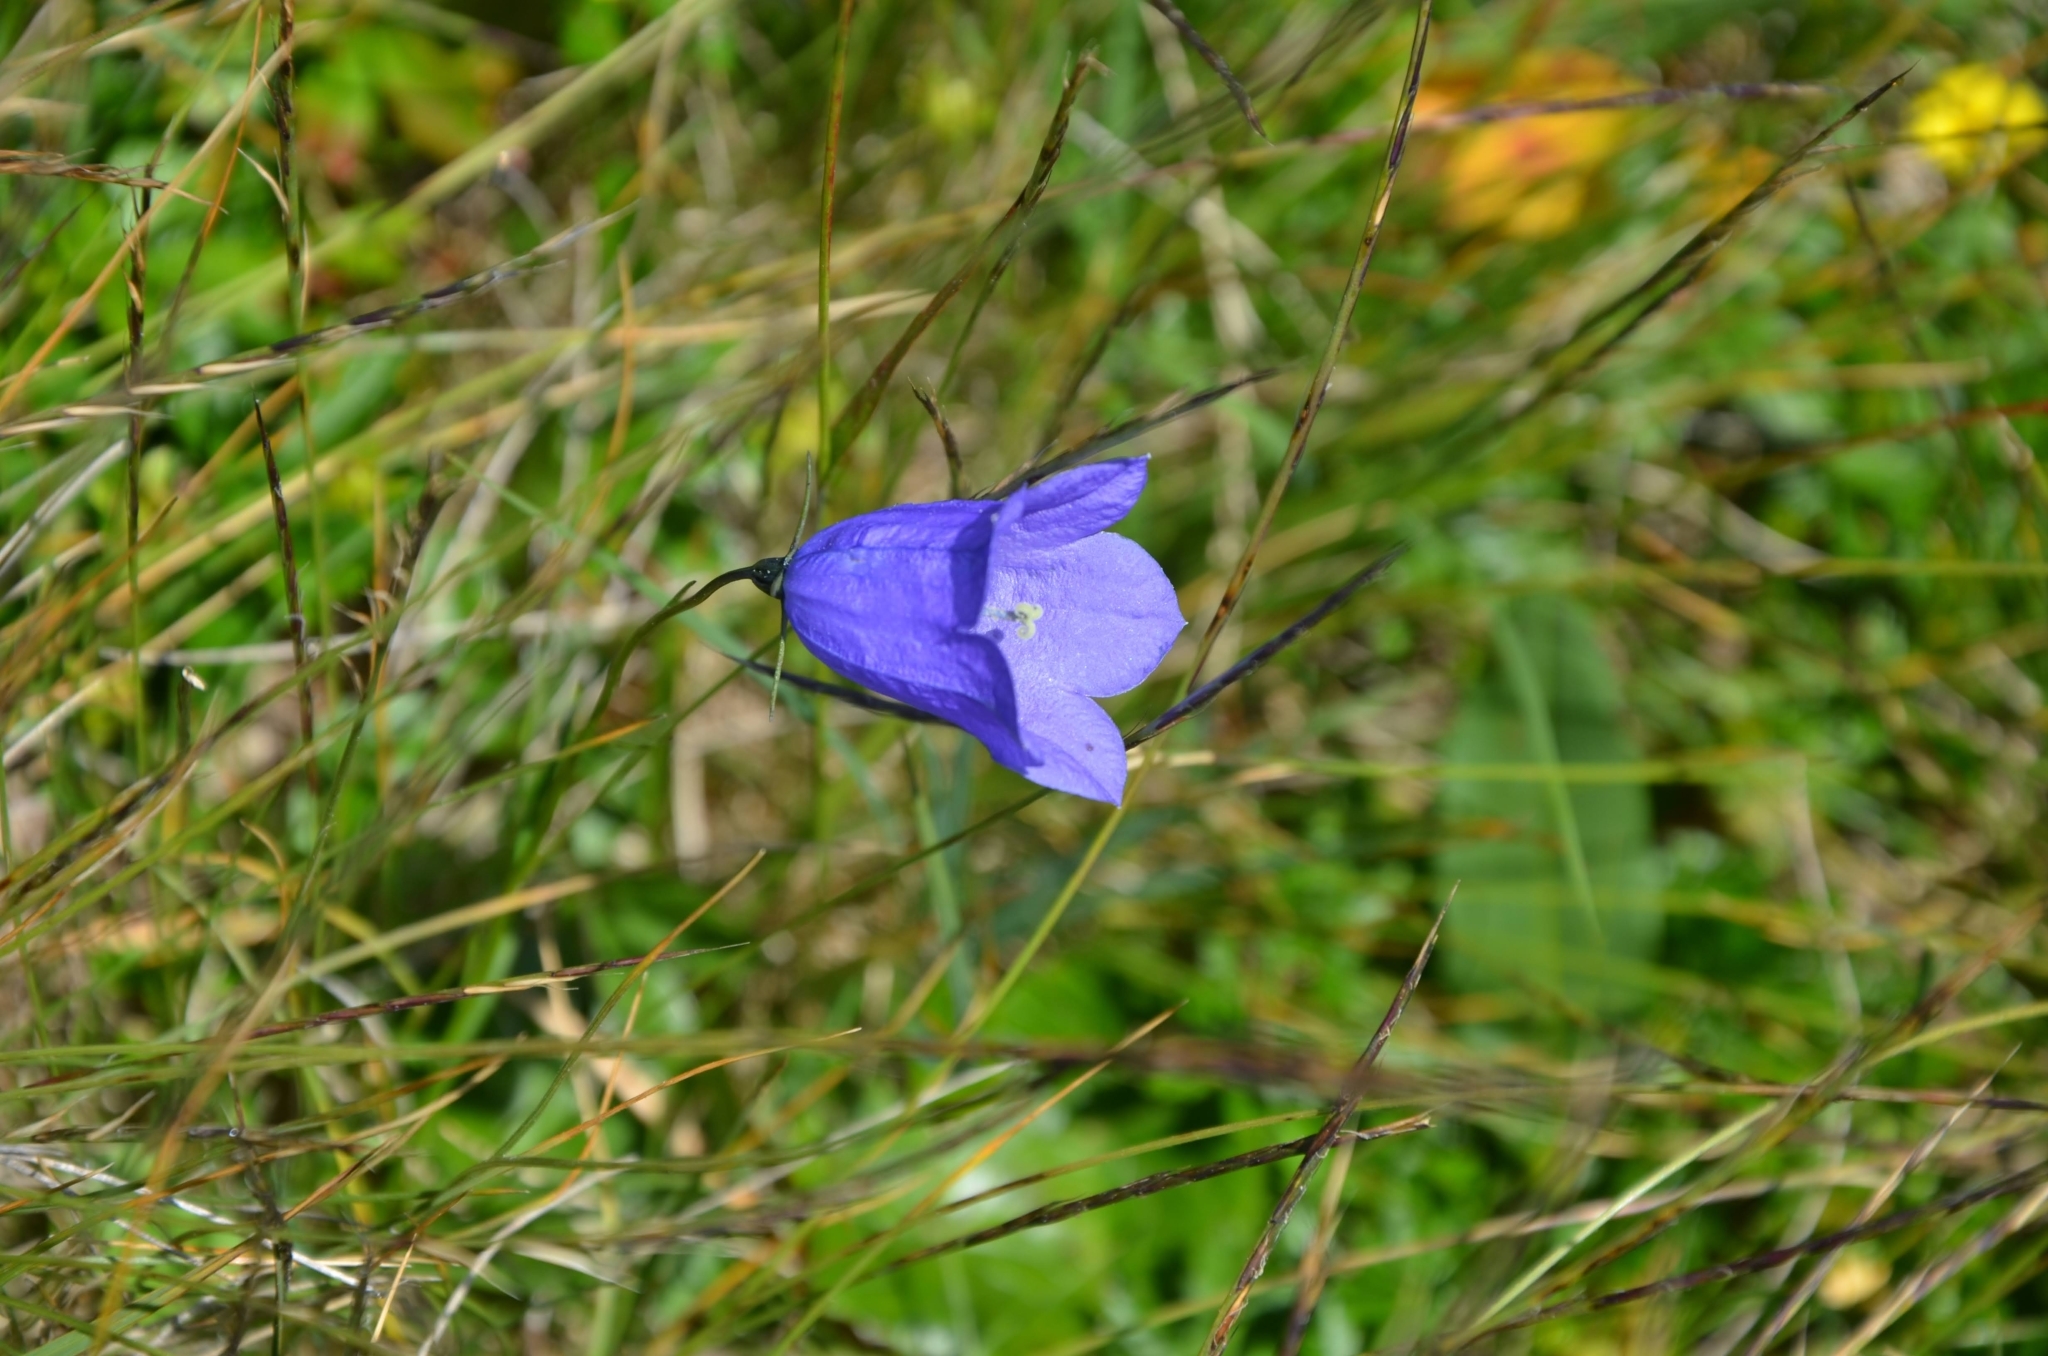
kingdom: Plantae
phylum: Tracheophyta
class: Magnoliopsida
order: Asterales
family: Campanulaceae
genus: Campanula
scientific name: Campanula scheuchzeri
